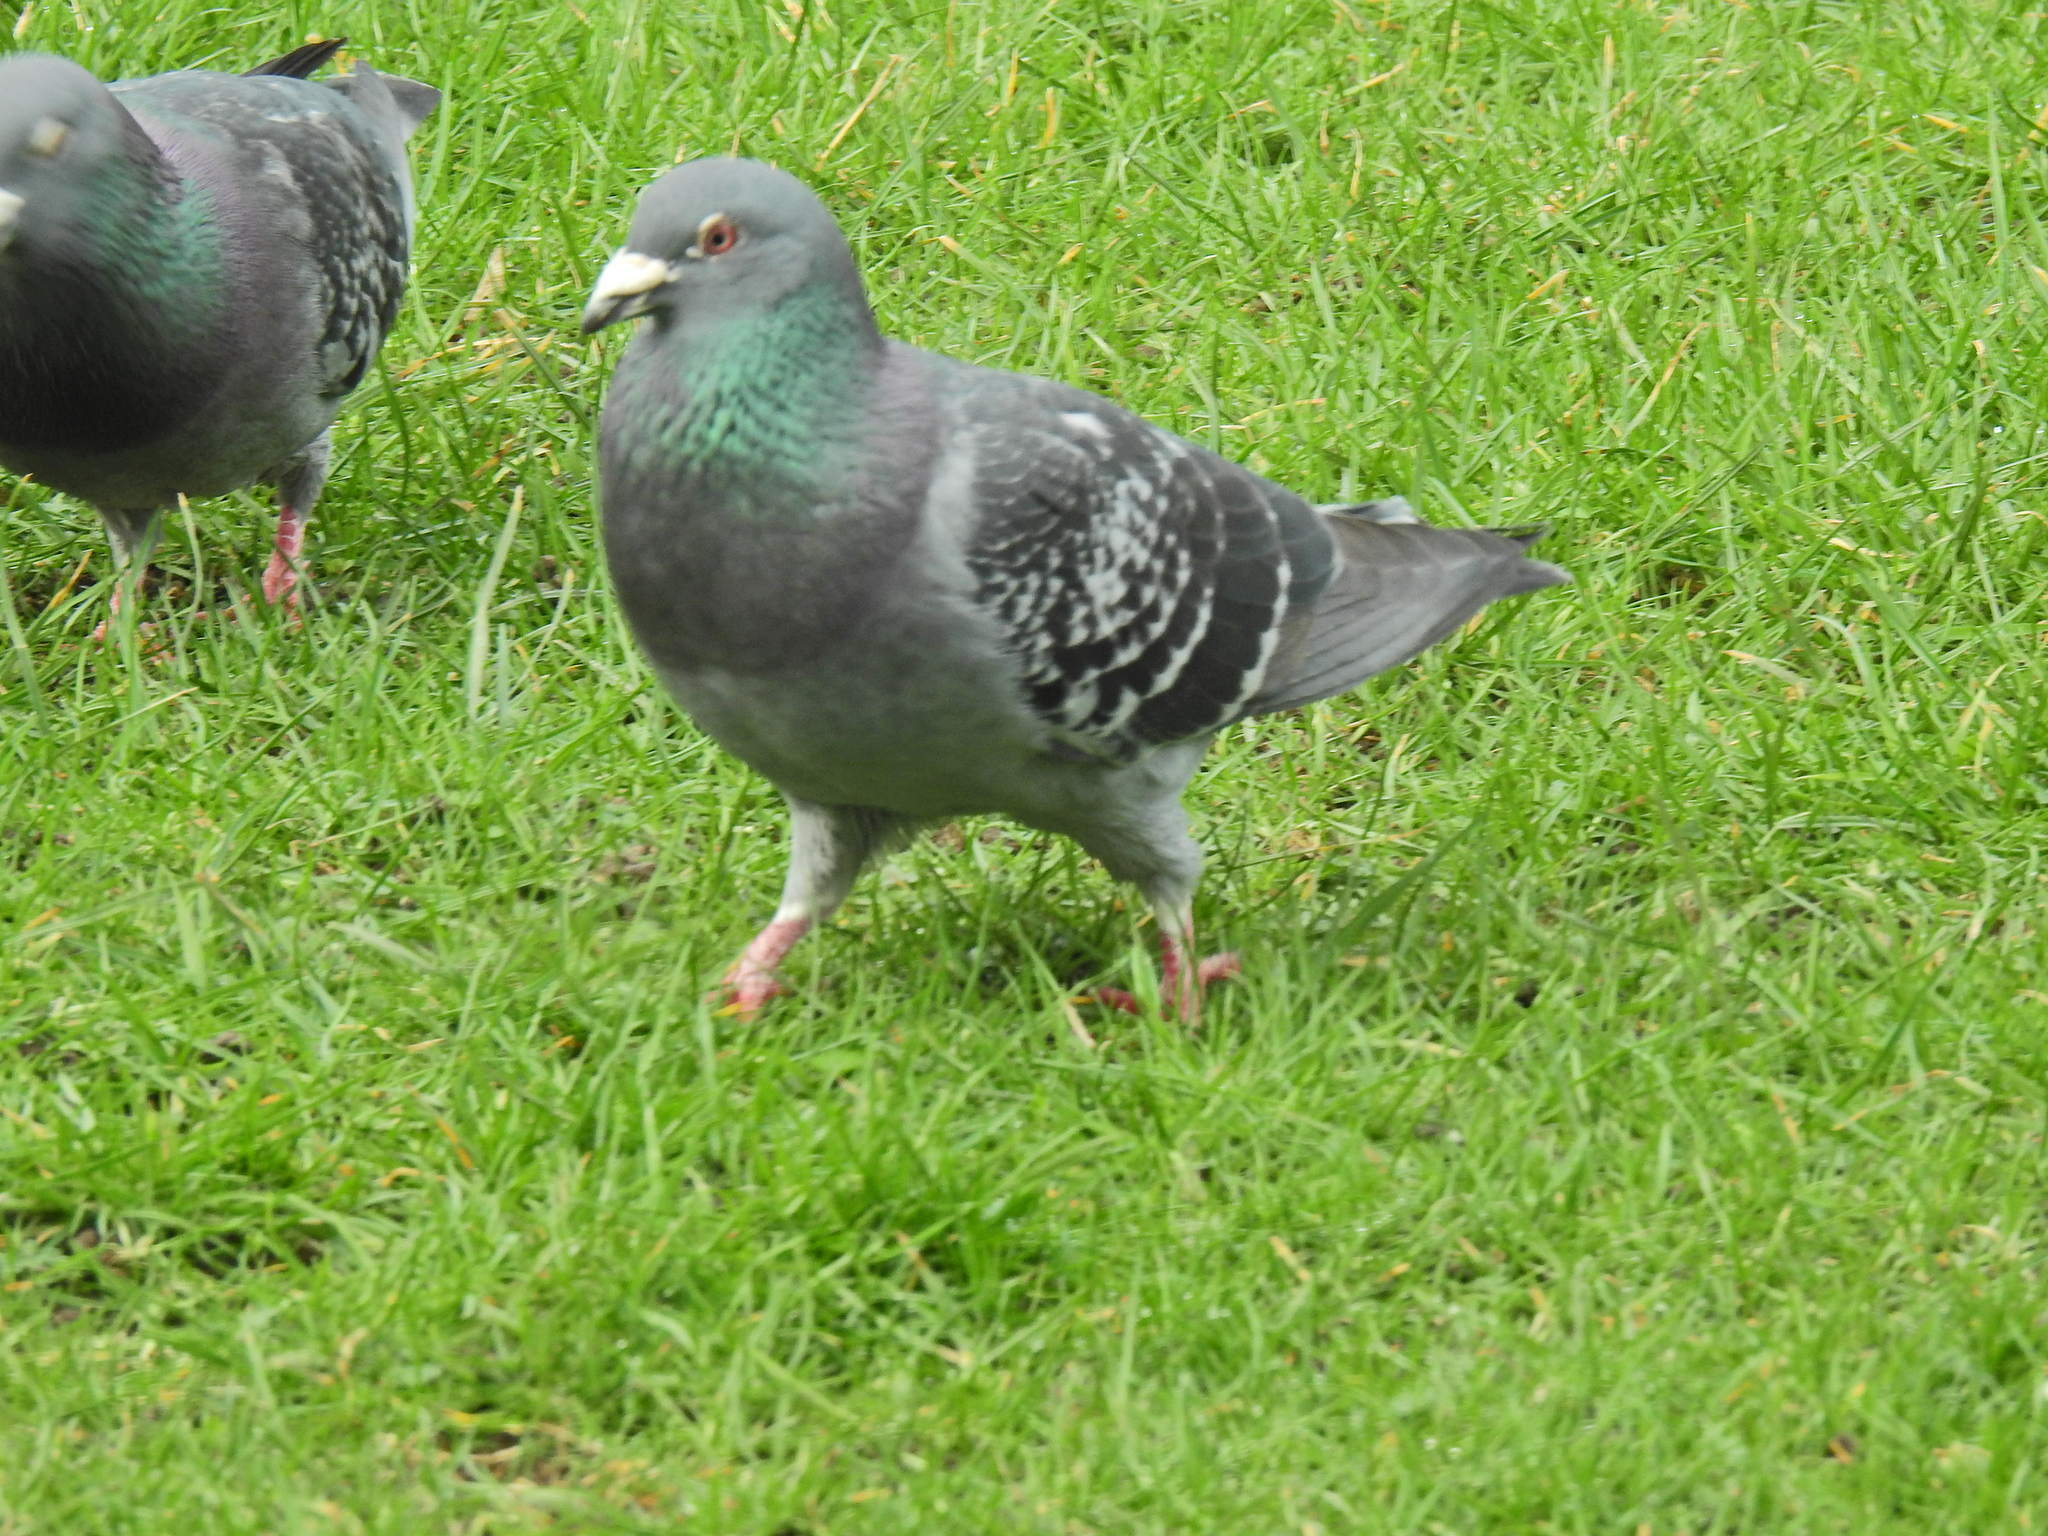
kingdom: Animalia
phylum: Chordata
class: Aves
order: Columbiformes
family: Columbidae
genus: Columba
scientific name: Columba livia
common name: Rock pigeon
